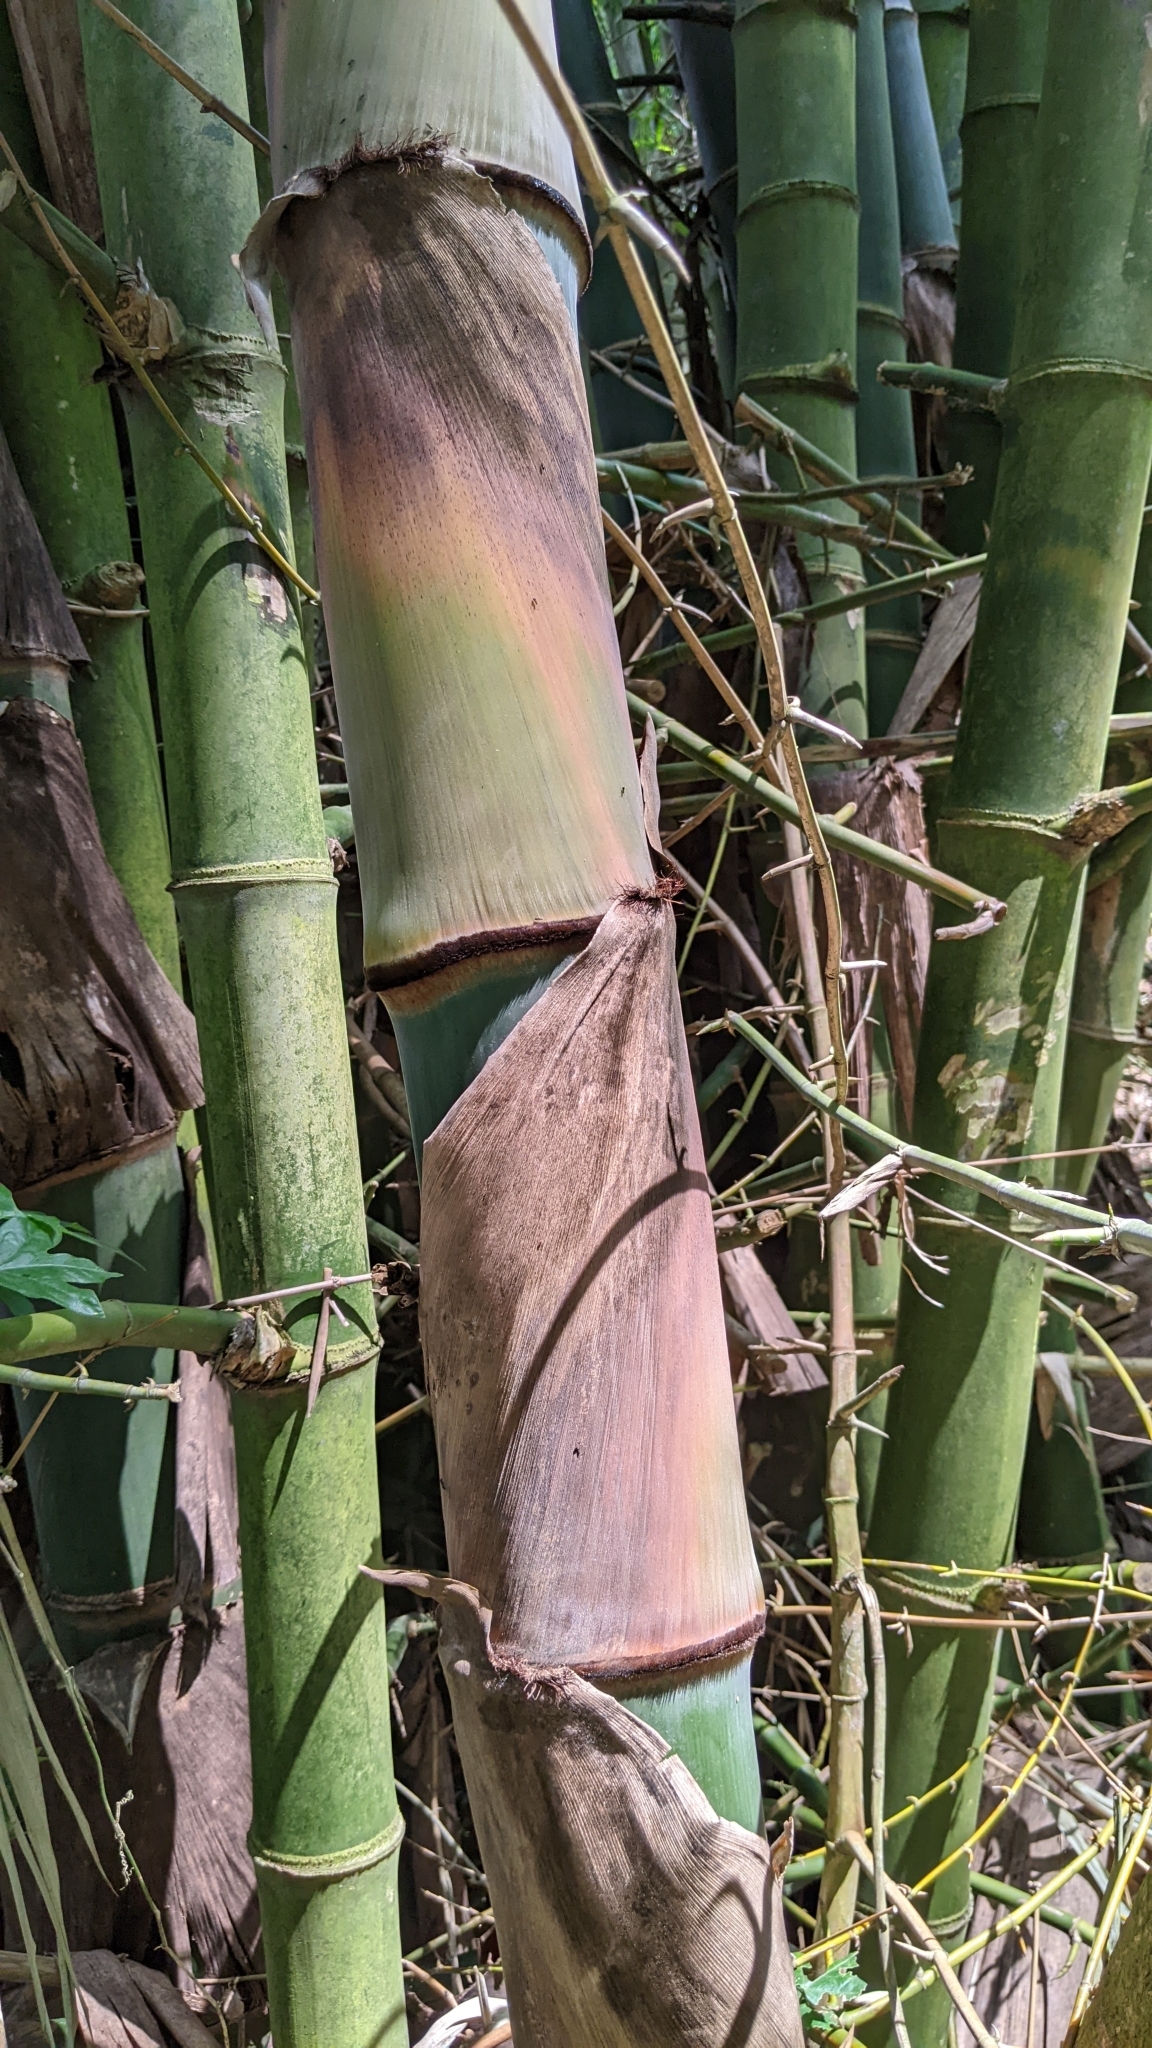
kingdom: Plantae
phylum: Tracheophyta
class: Liliopsida
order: Poales
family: Poaceae
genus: Bambusa
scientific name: Bambusa spinosa
